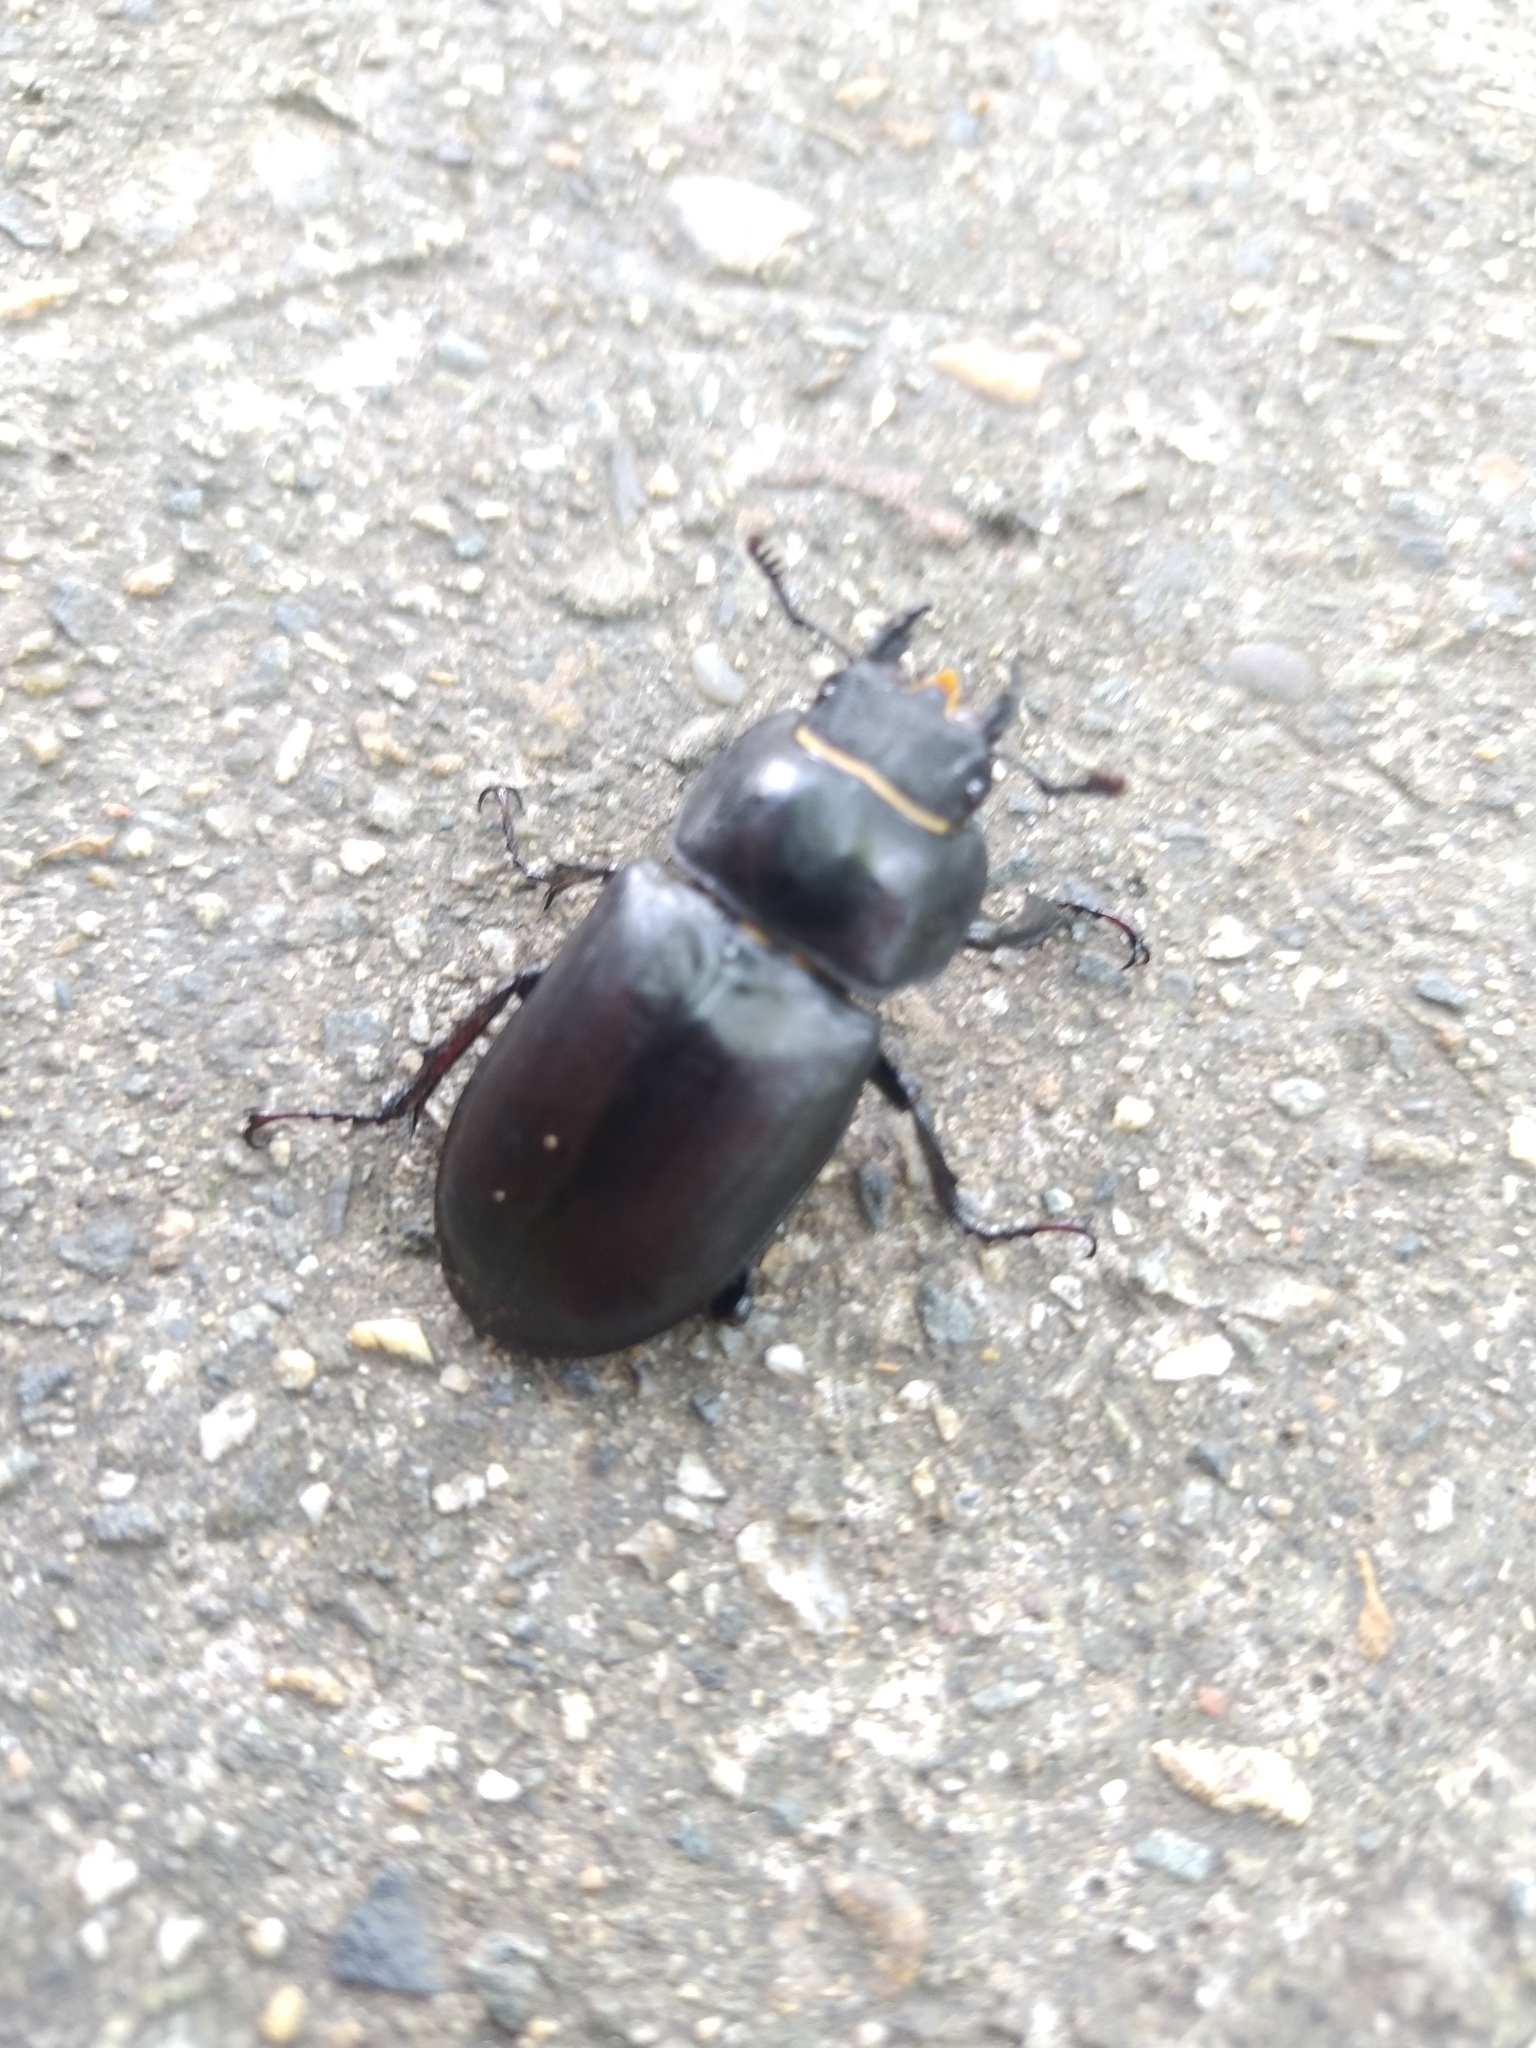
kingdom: Animalia
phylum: Arthropoda
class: Insecta
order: Coleoptera
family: Lucanidae
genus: Lucanus
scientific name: Lucanus cervus
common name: Stag beetle
